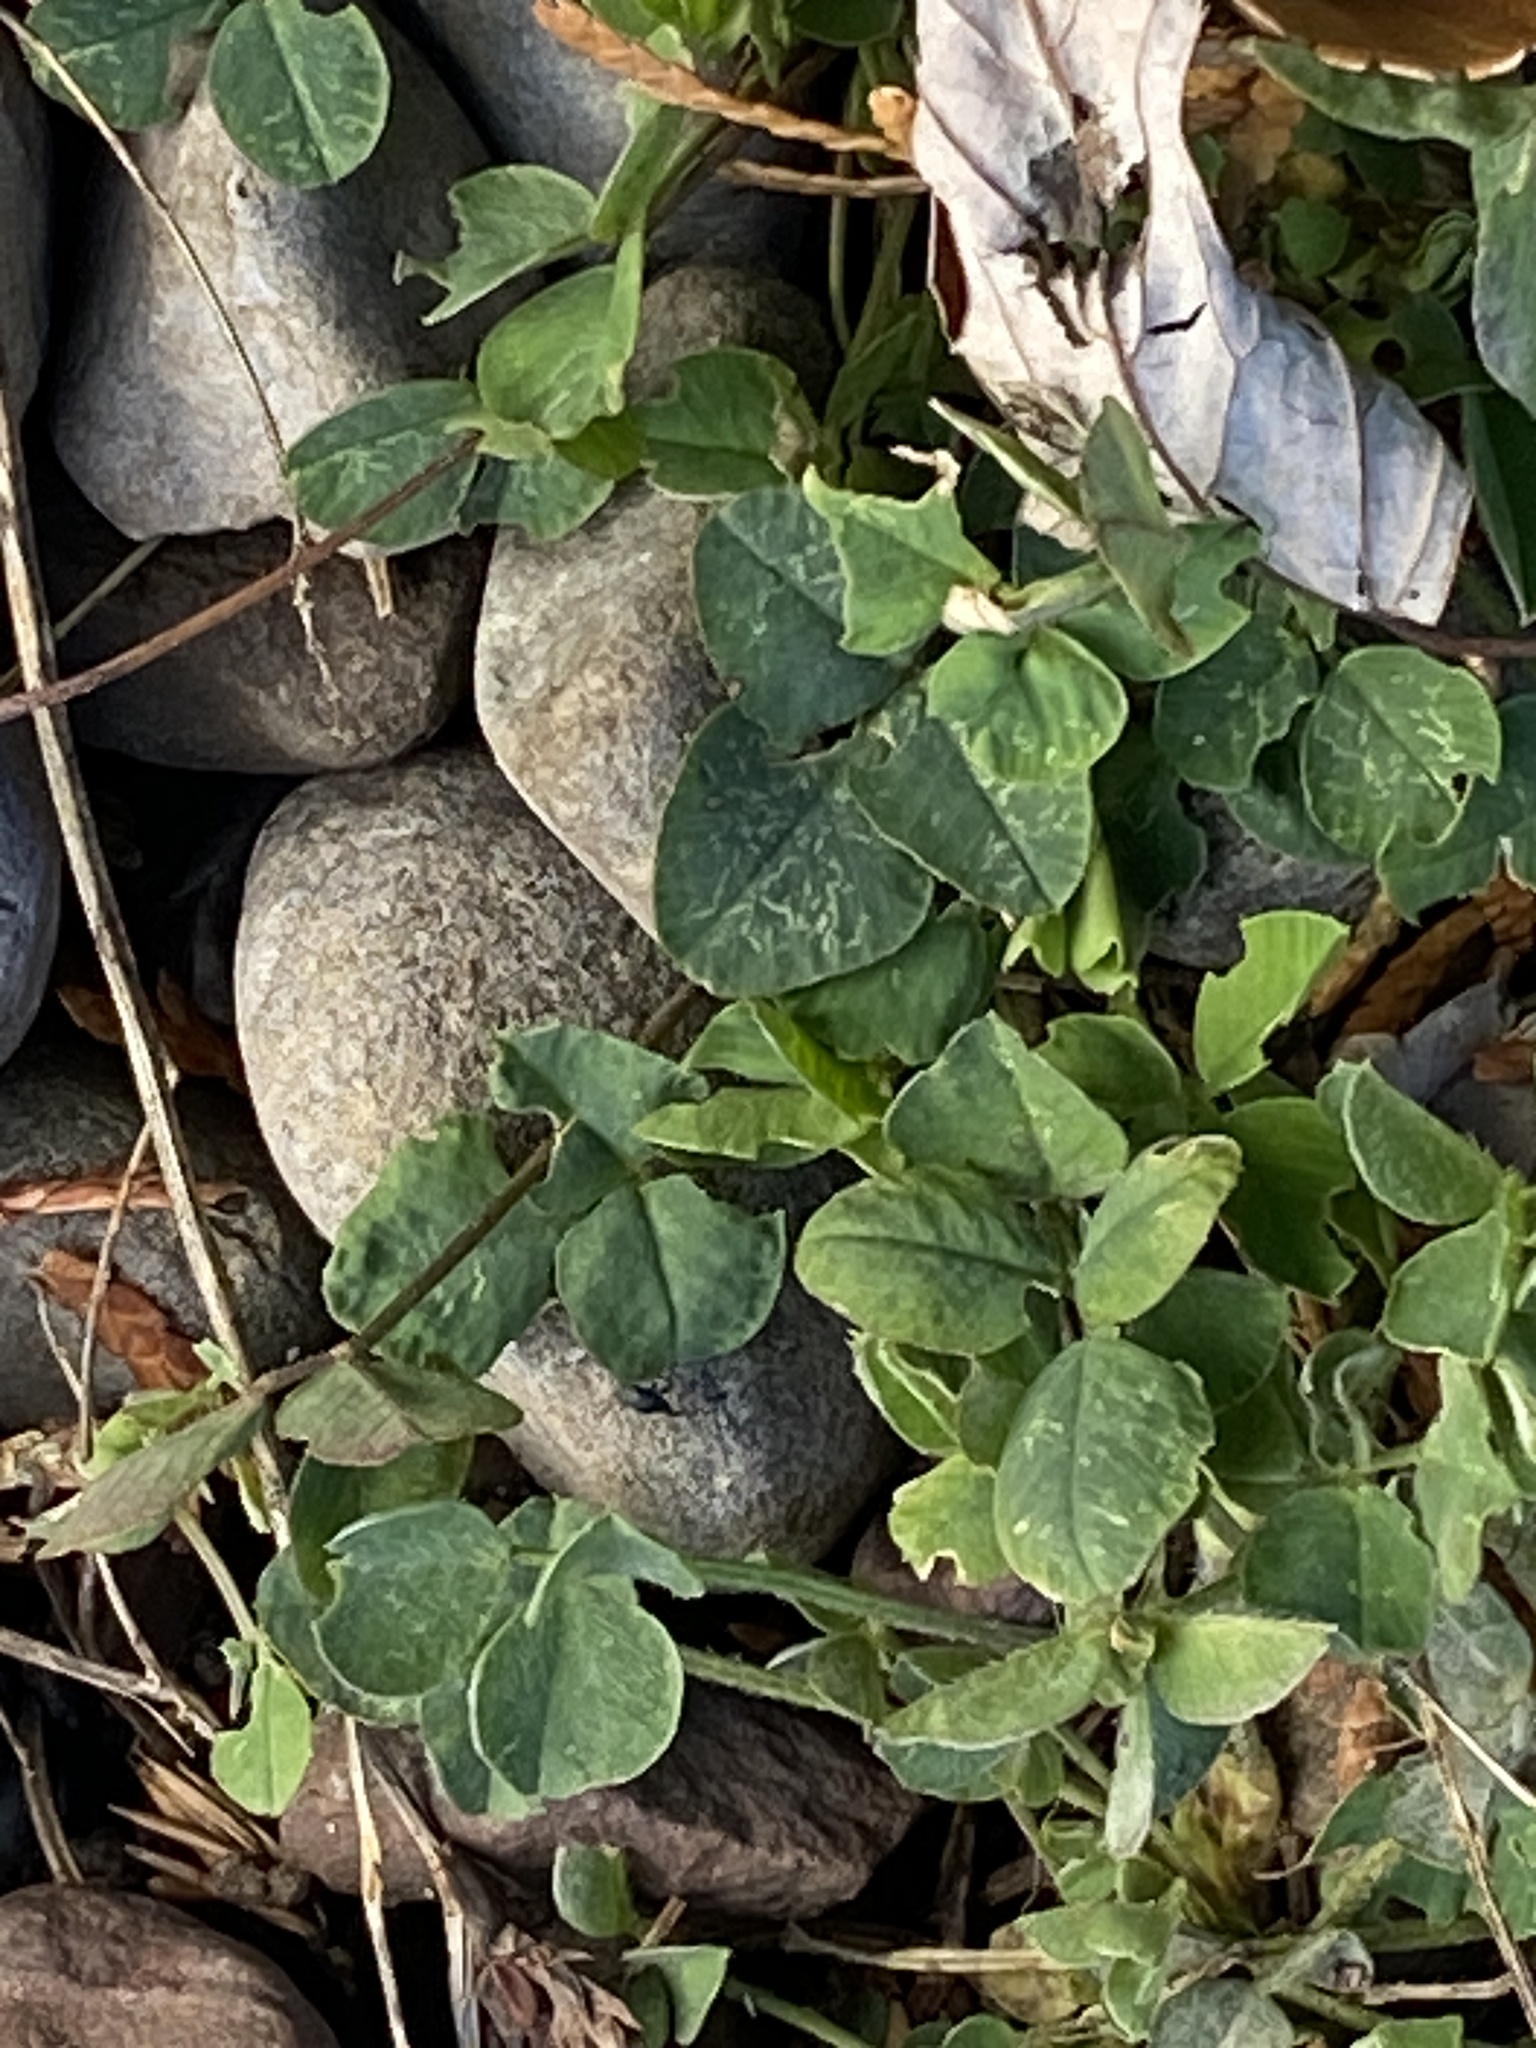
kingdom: Plantae
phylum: Tracheophyta
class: Magnoliopsida
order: Fabales
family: Fabaceae
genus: Medicago
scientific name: Medicago lupulina
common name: Black medick
